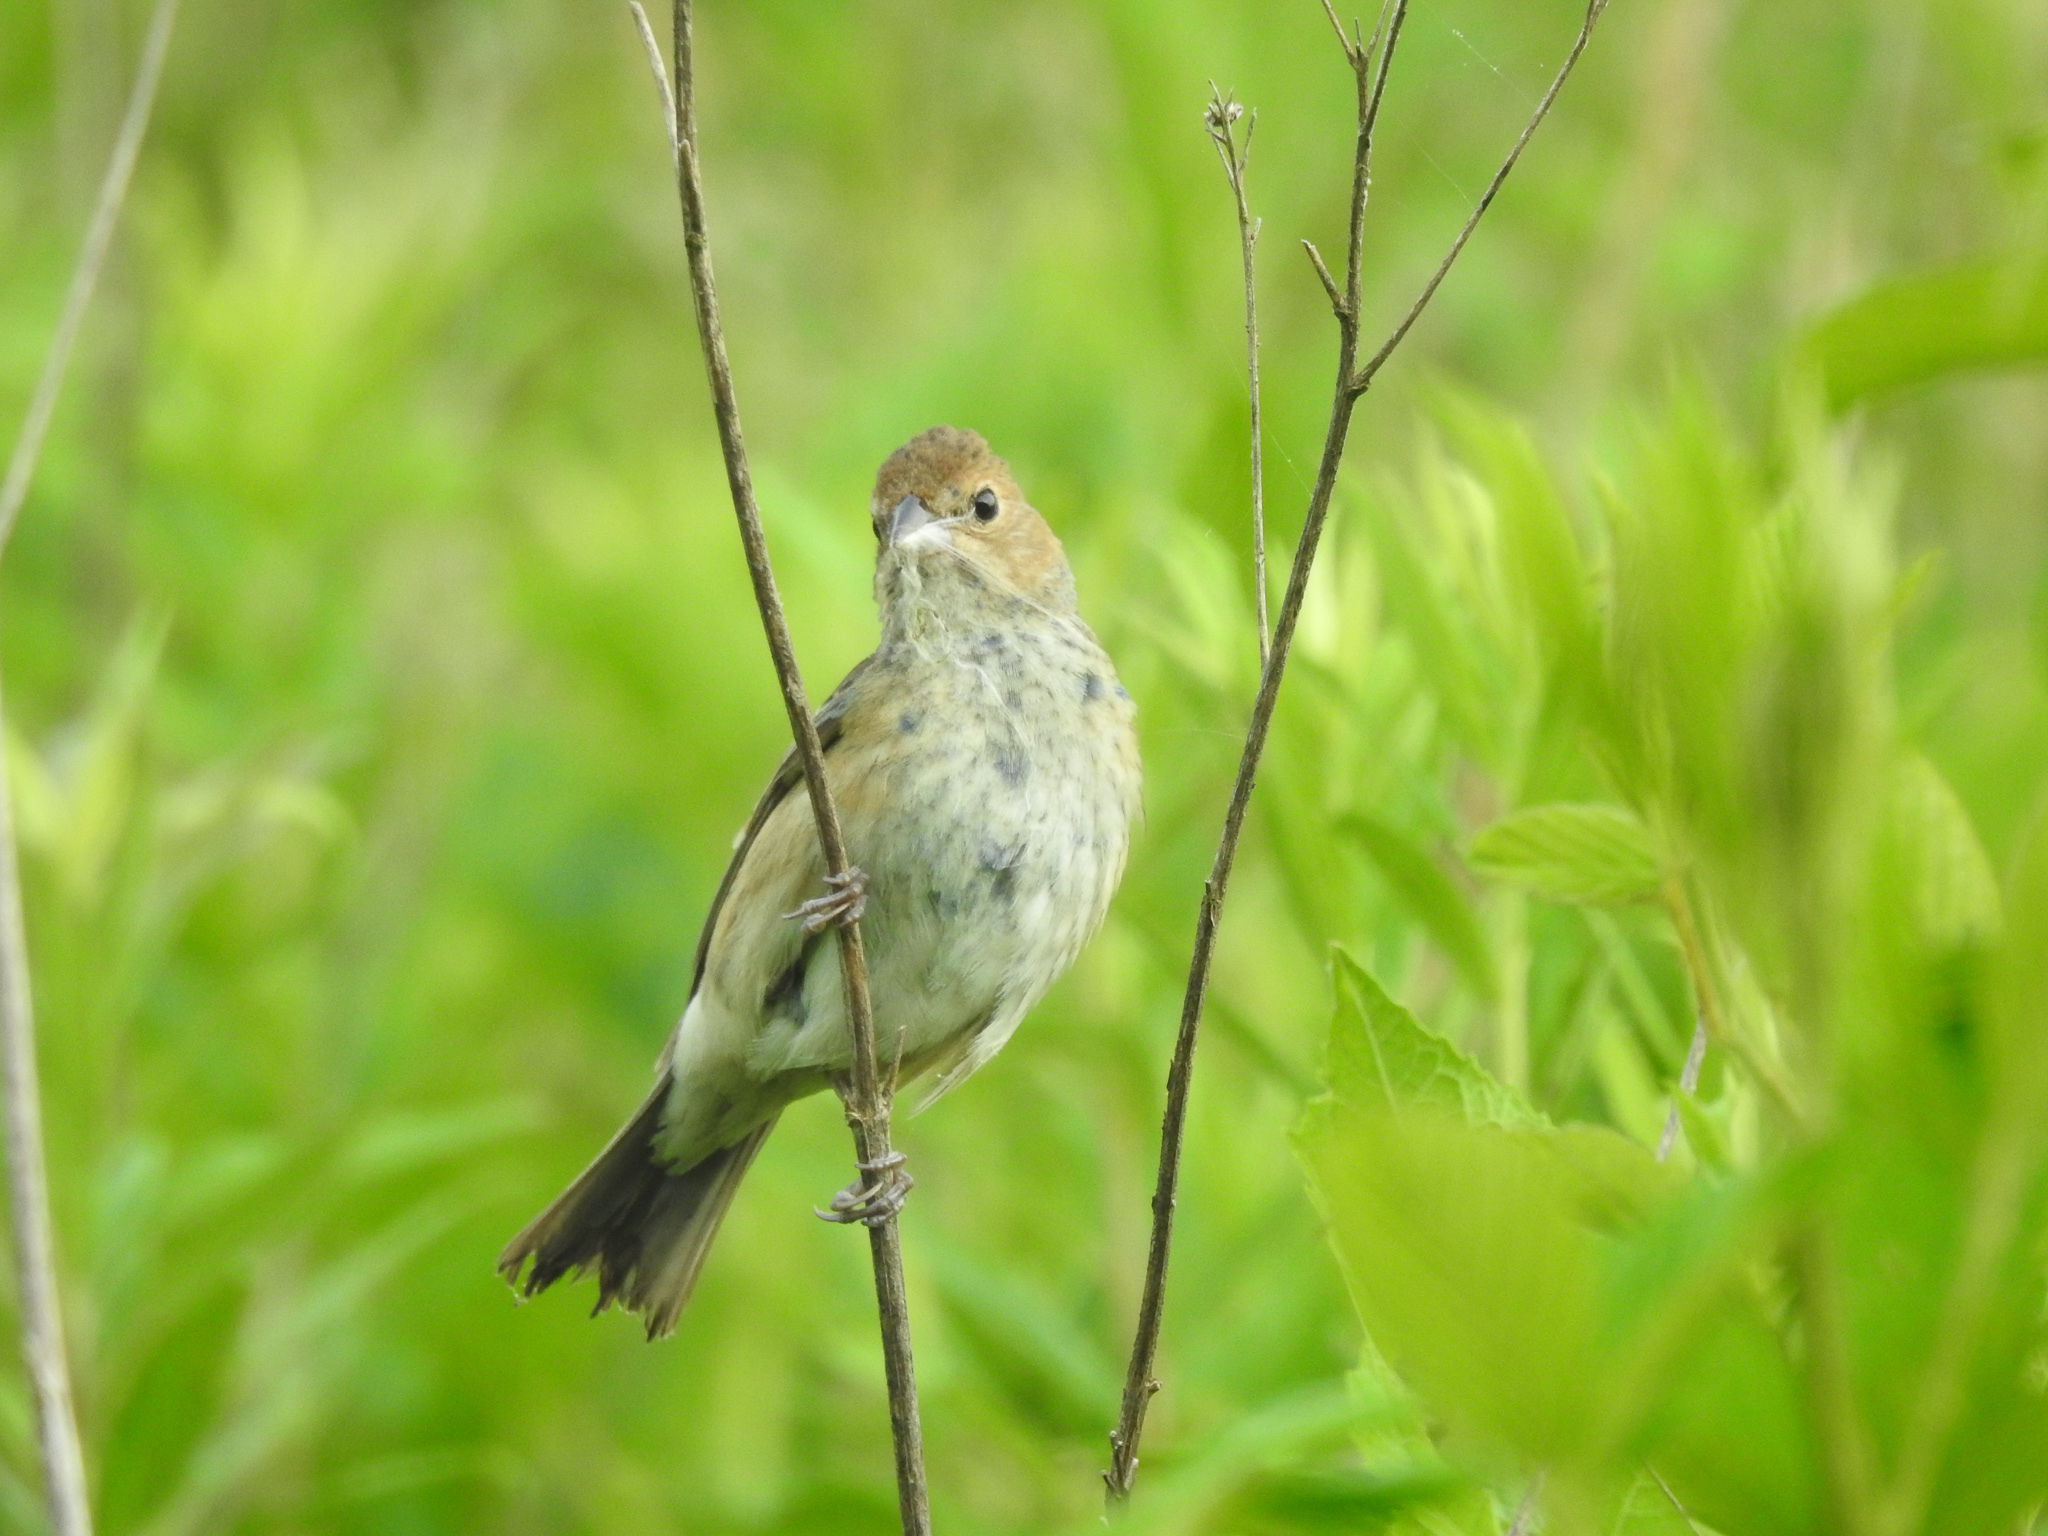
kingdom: Animalia
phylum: Chordata
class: Aves
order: Passeriformes
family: Cardinalidae
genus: Passerina
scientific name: Passerina cyanea
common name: Indigo bunting
